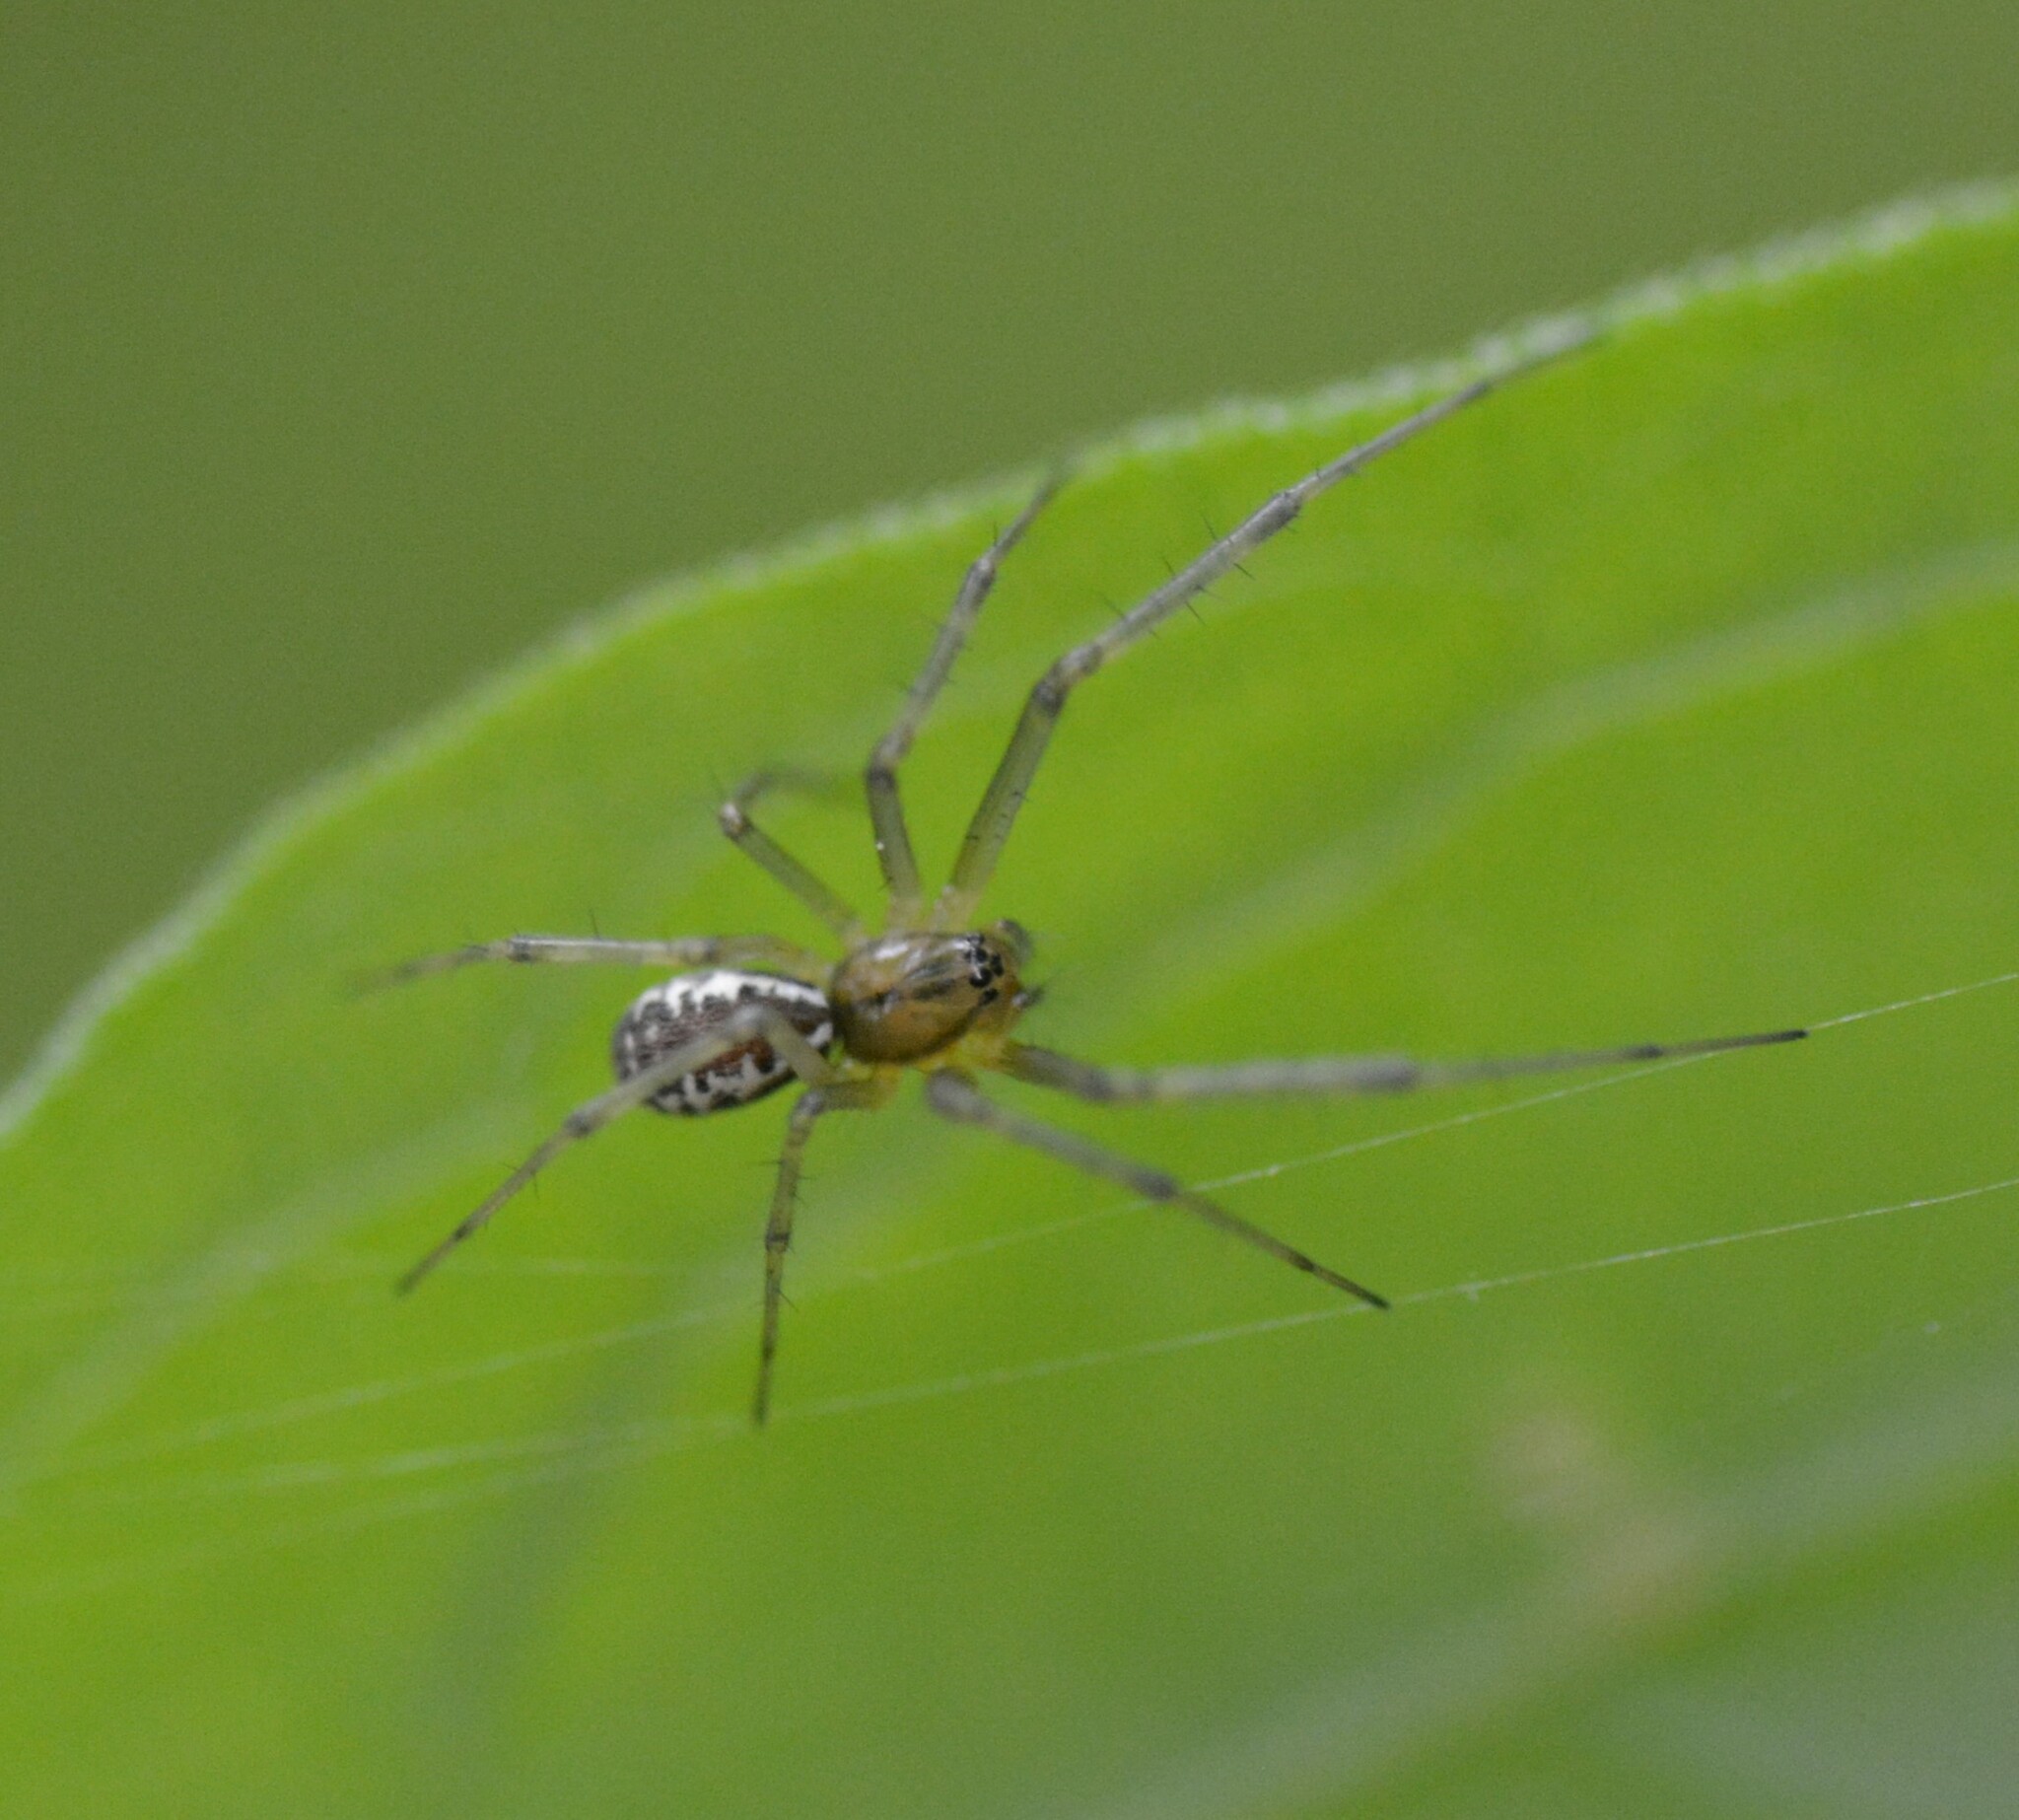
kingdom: Animalia
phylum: Arthropoda
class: Arachnida
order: Araneae
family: Linyphiidae
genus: Linyphia
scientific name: Linyphia triangularis
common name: Money spider
